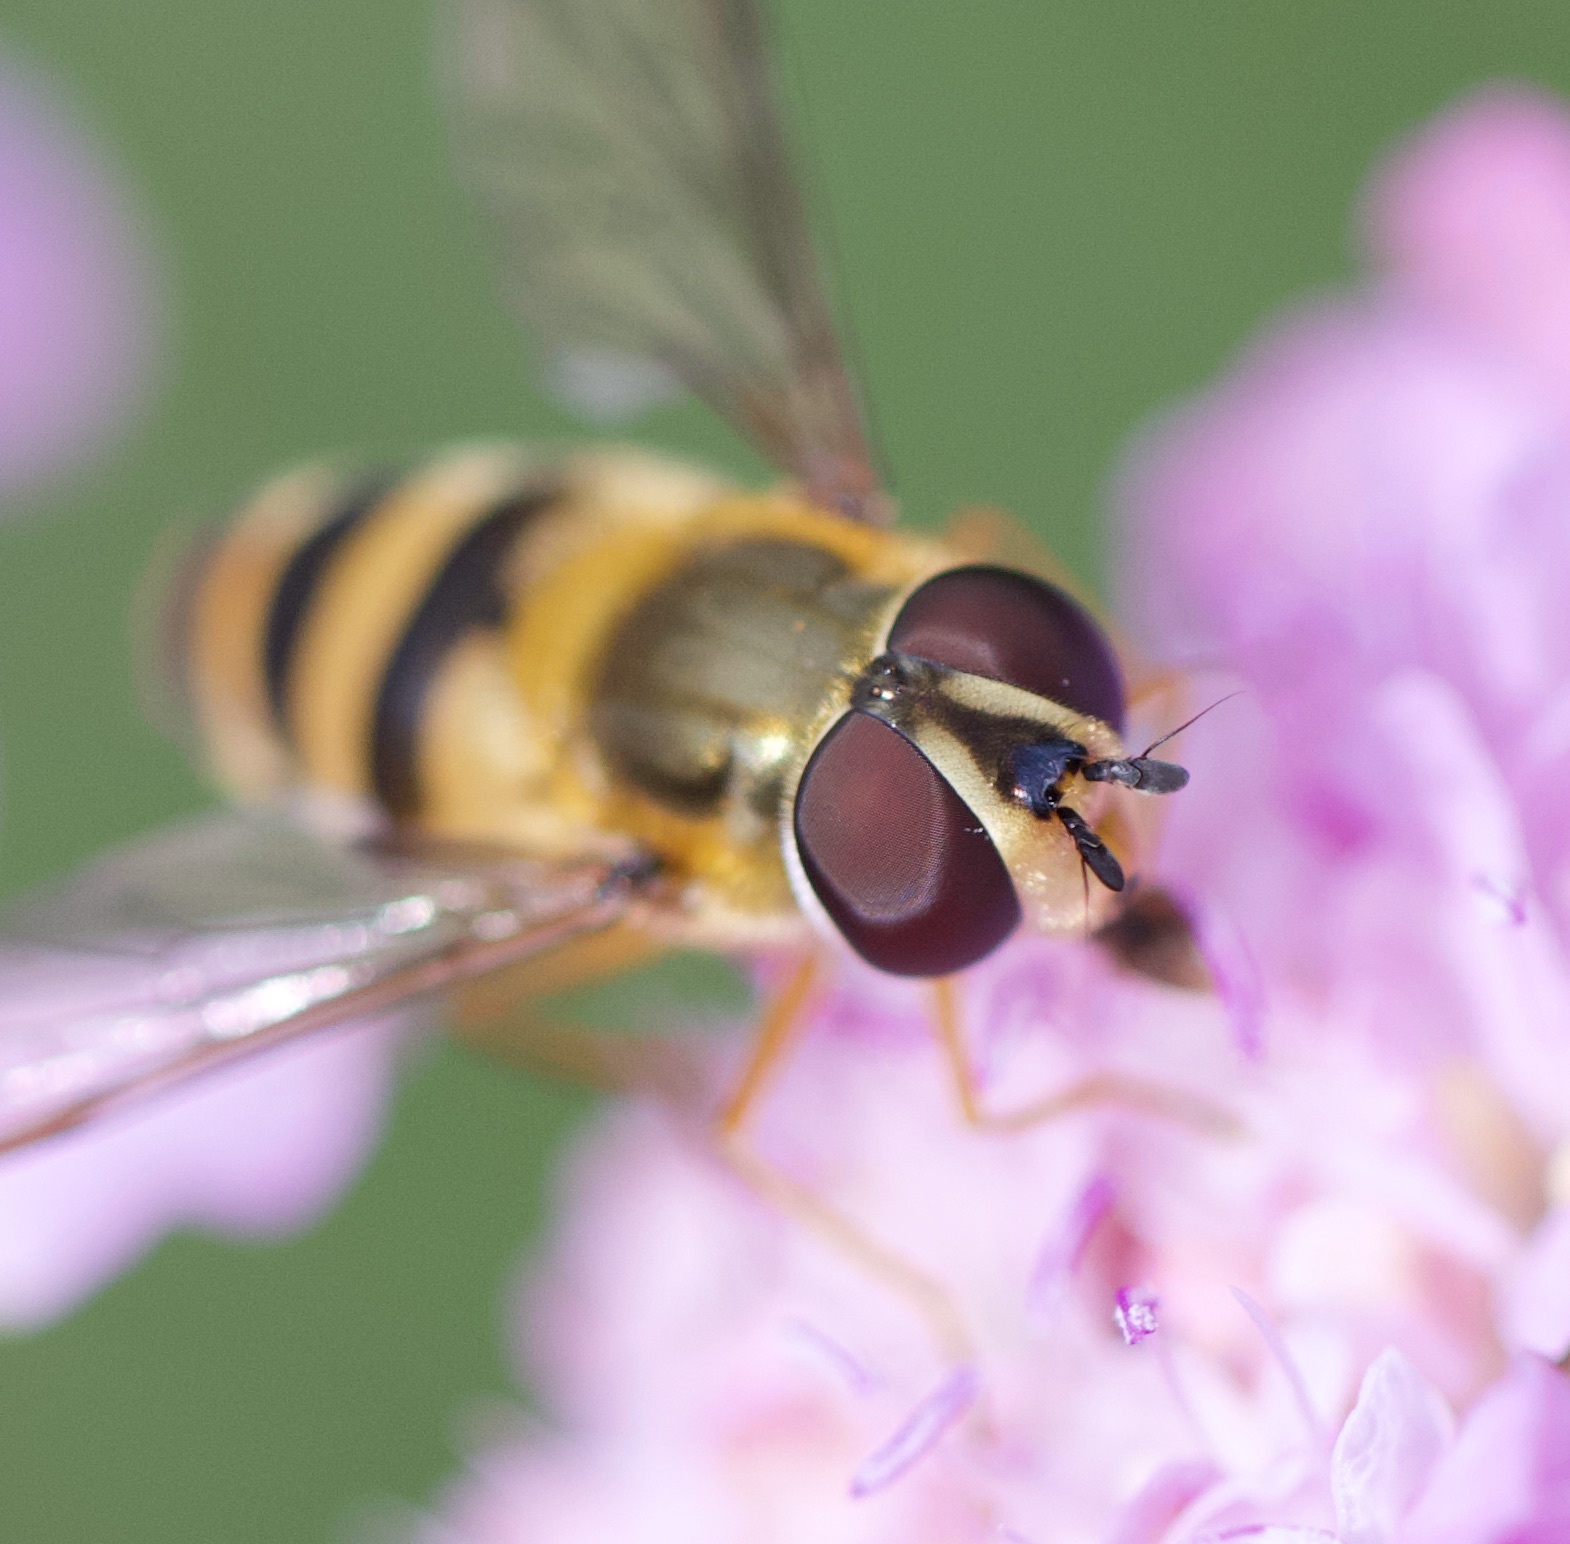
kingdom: Animalia
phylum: Arthropoda
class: Insecta
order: Diptera
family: Syrphidae
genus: Epistrophe
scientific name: Epistrophe grossulariae
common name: Black-horned smoothtail
